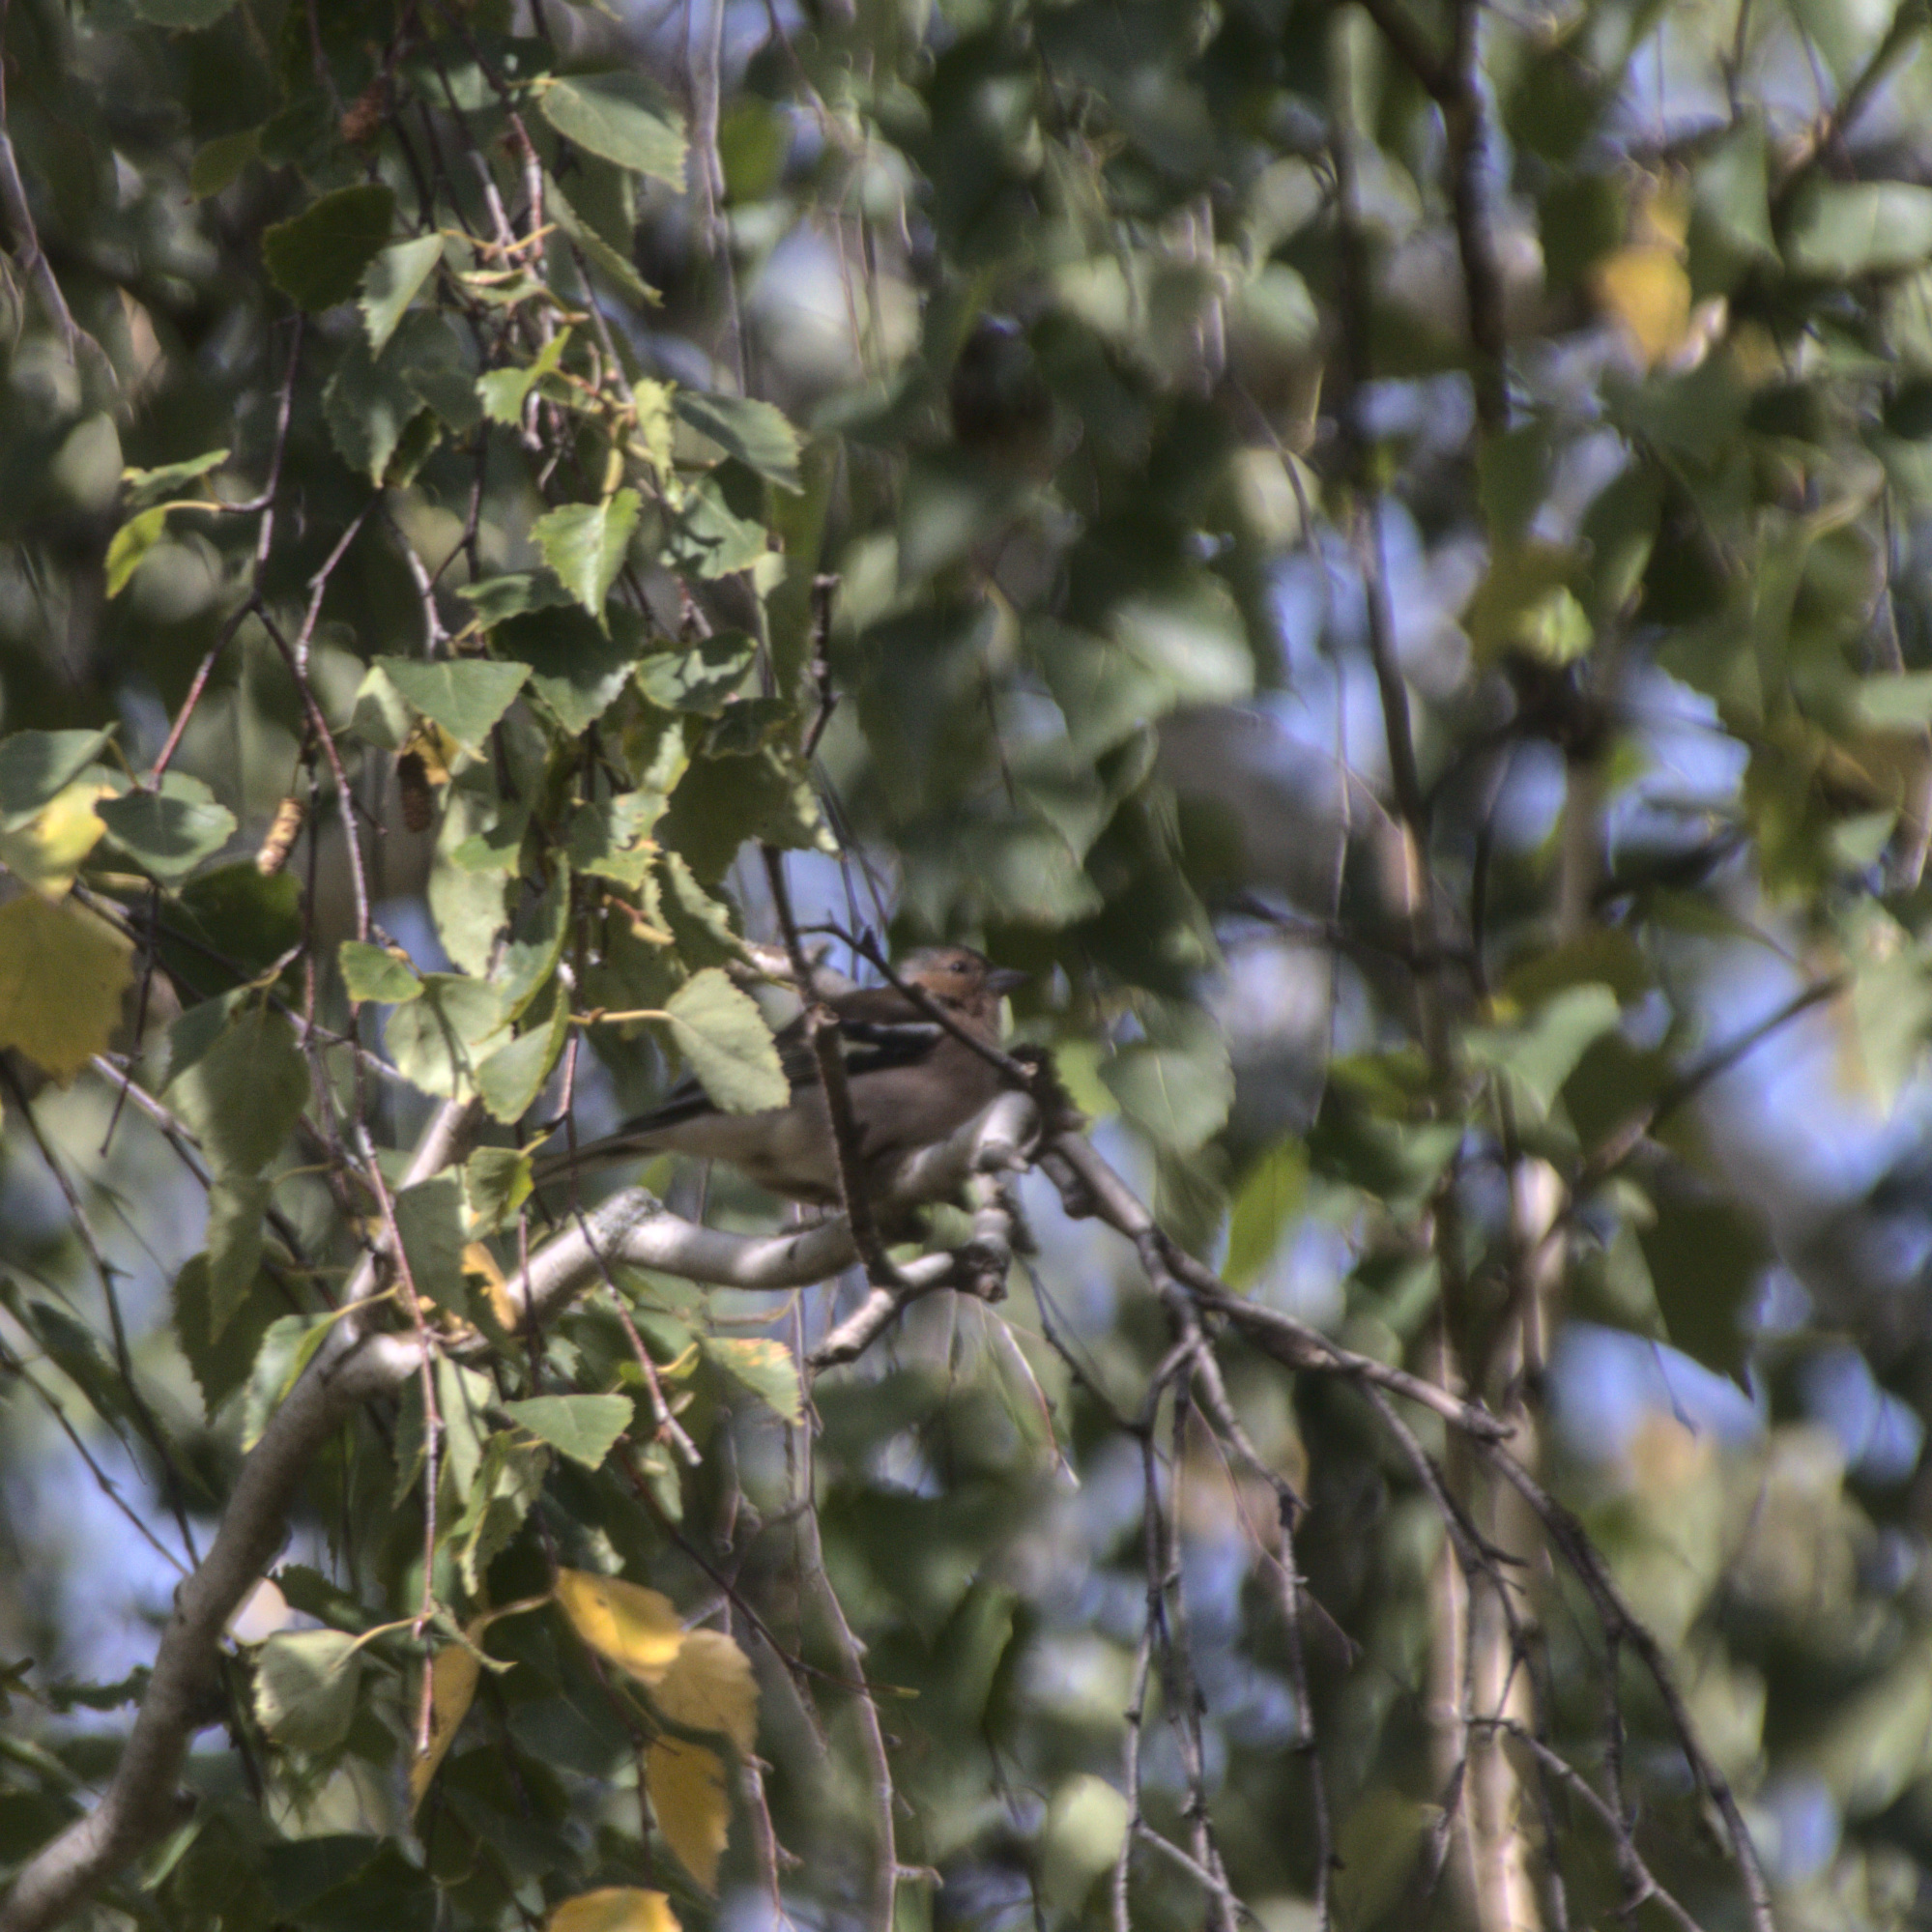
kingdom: Animalia
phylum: Chordata
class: Aves
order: Passeriformes
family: Fringillidae
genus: Fringilla
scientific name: Fringilla coelebs
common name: Common chaffinch
